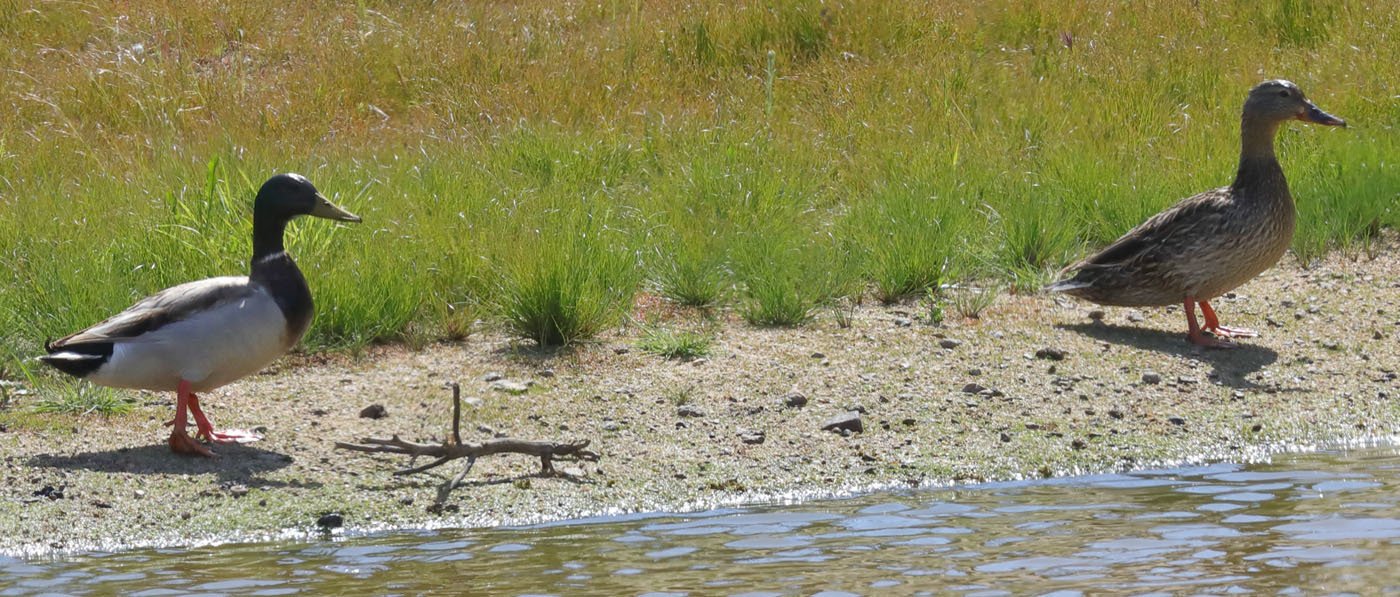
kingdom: Animalia
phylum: Chordata
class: Aves
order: Anseriformes
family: Anatidae
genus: Anas
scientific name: Anas platyrhynchos
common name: Mallard
